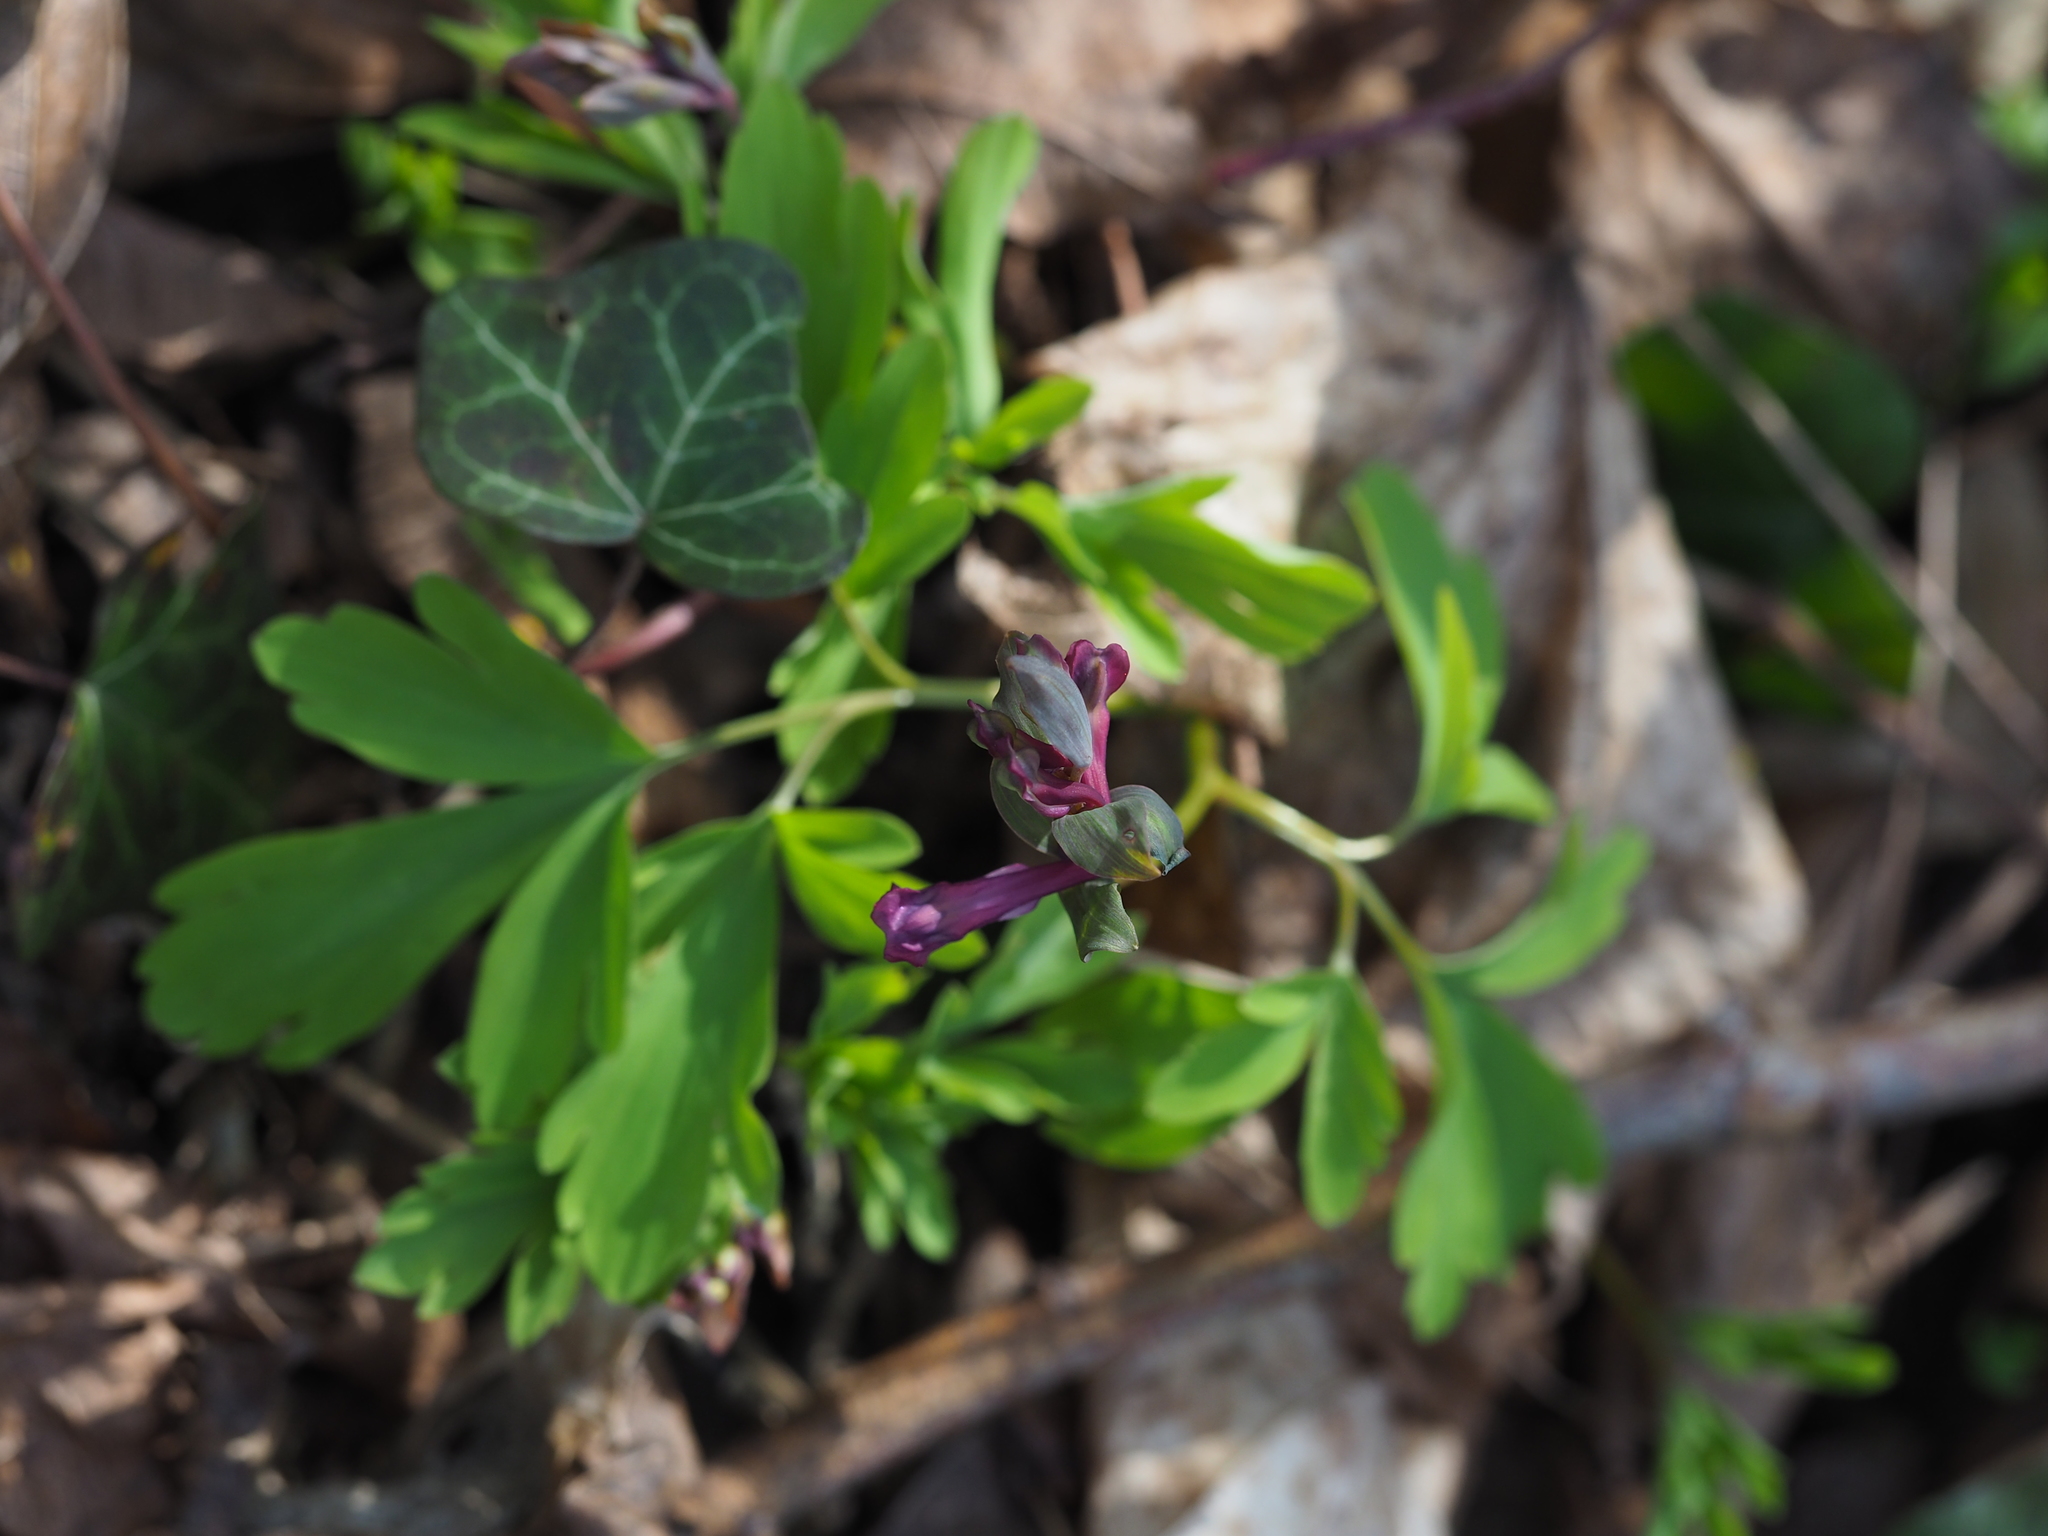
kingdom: Plantae
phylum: Tracheophyta
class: Magnoliopsida
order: Ranunculales
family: Papaveraceae
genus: Corydalis
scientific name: Corydalis cava
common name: Hollowroot
